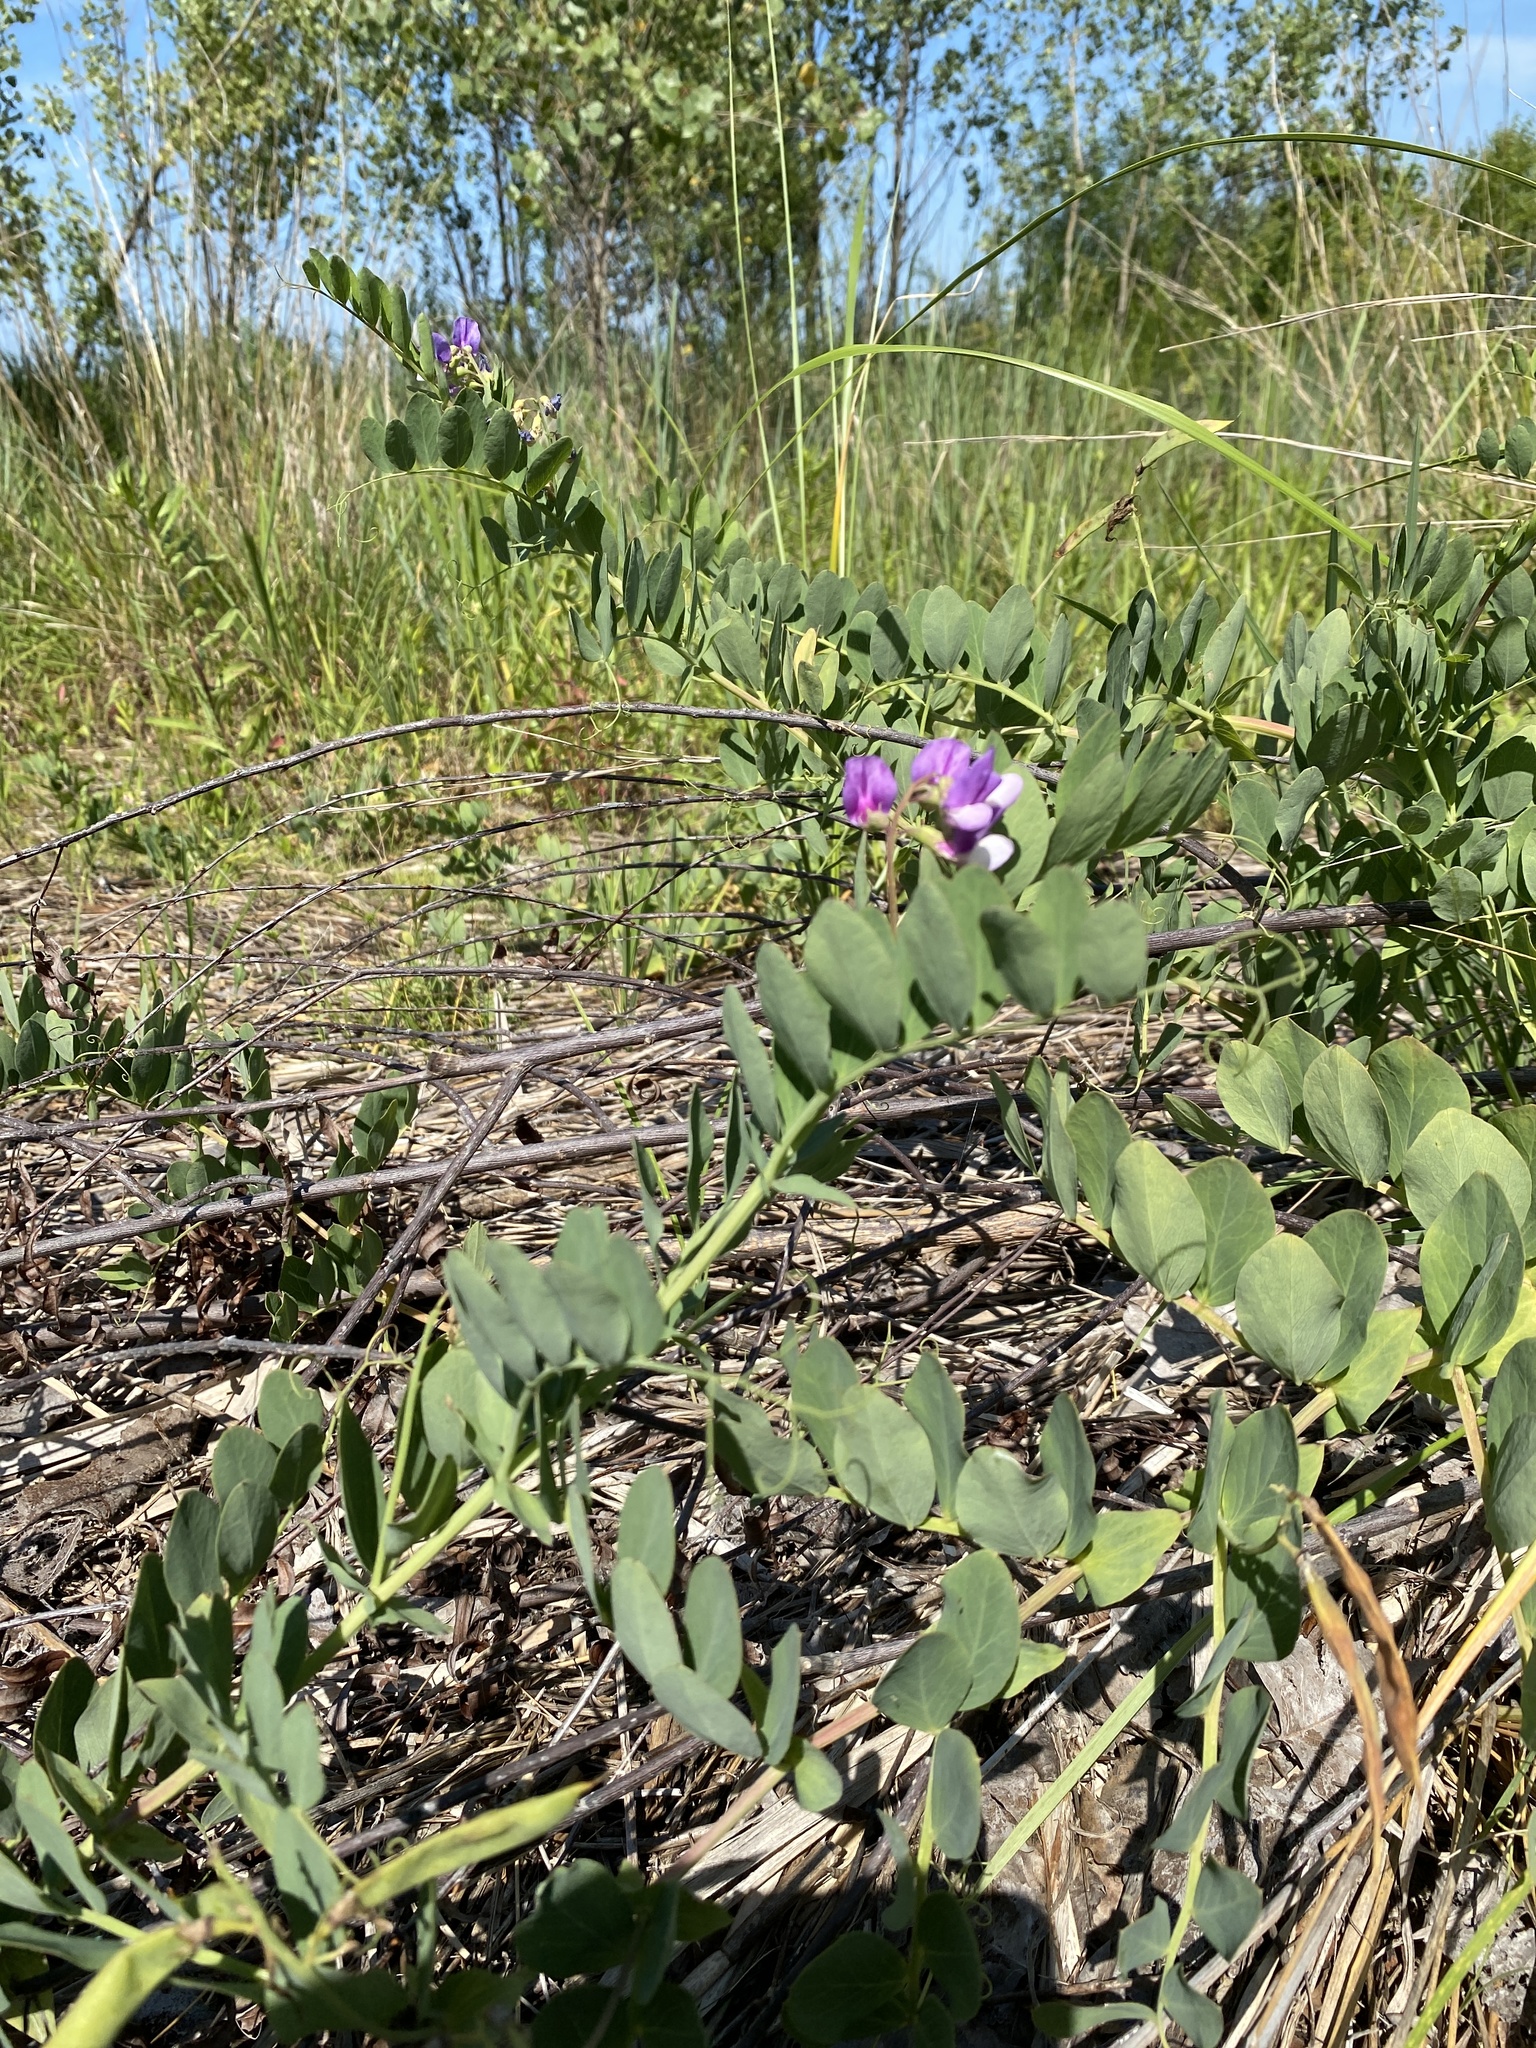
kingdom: Plantae
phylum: Tracheophyta
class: Magnoliopsida
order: Fabales
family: Fabaceae
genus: Lathyrus
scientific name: Lathyrus japonicus
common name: Sea pea
